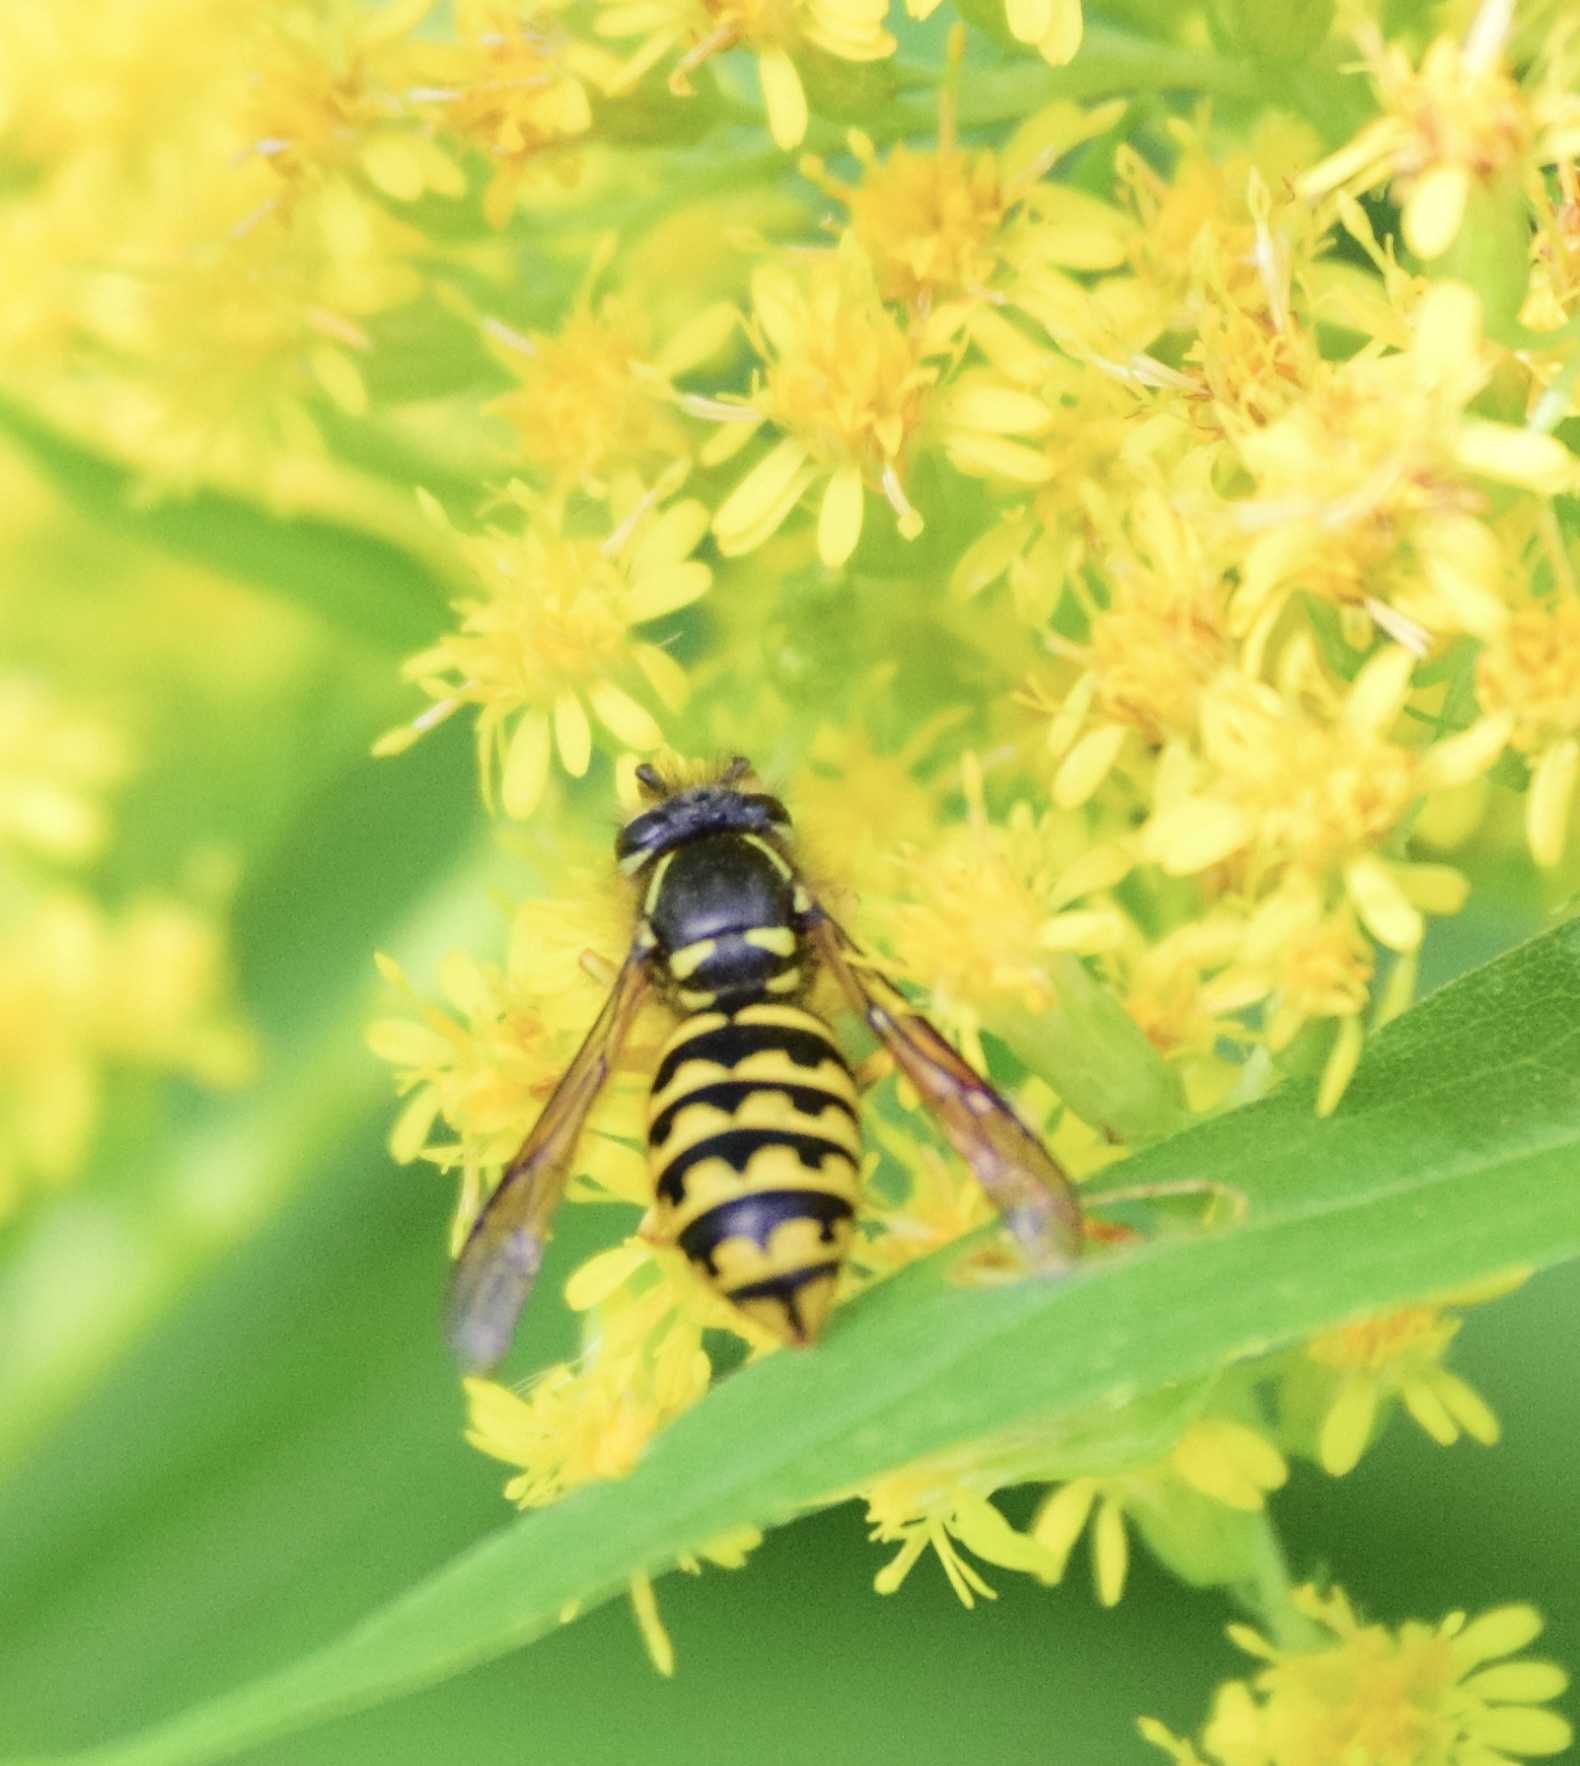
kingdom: Animalia
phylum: Arthropoda
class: Insecta
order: Hymenoptera
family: Vespidae
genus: Dolichovespula
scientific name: Dolichovespula arenaria
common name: Aerial yellowjacket
